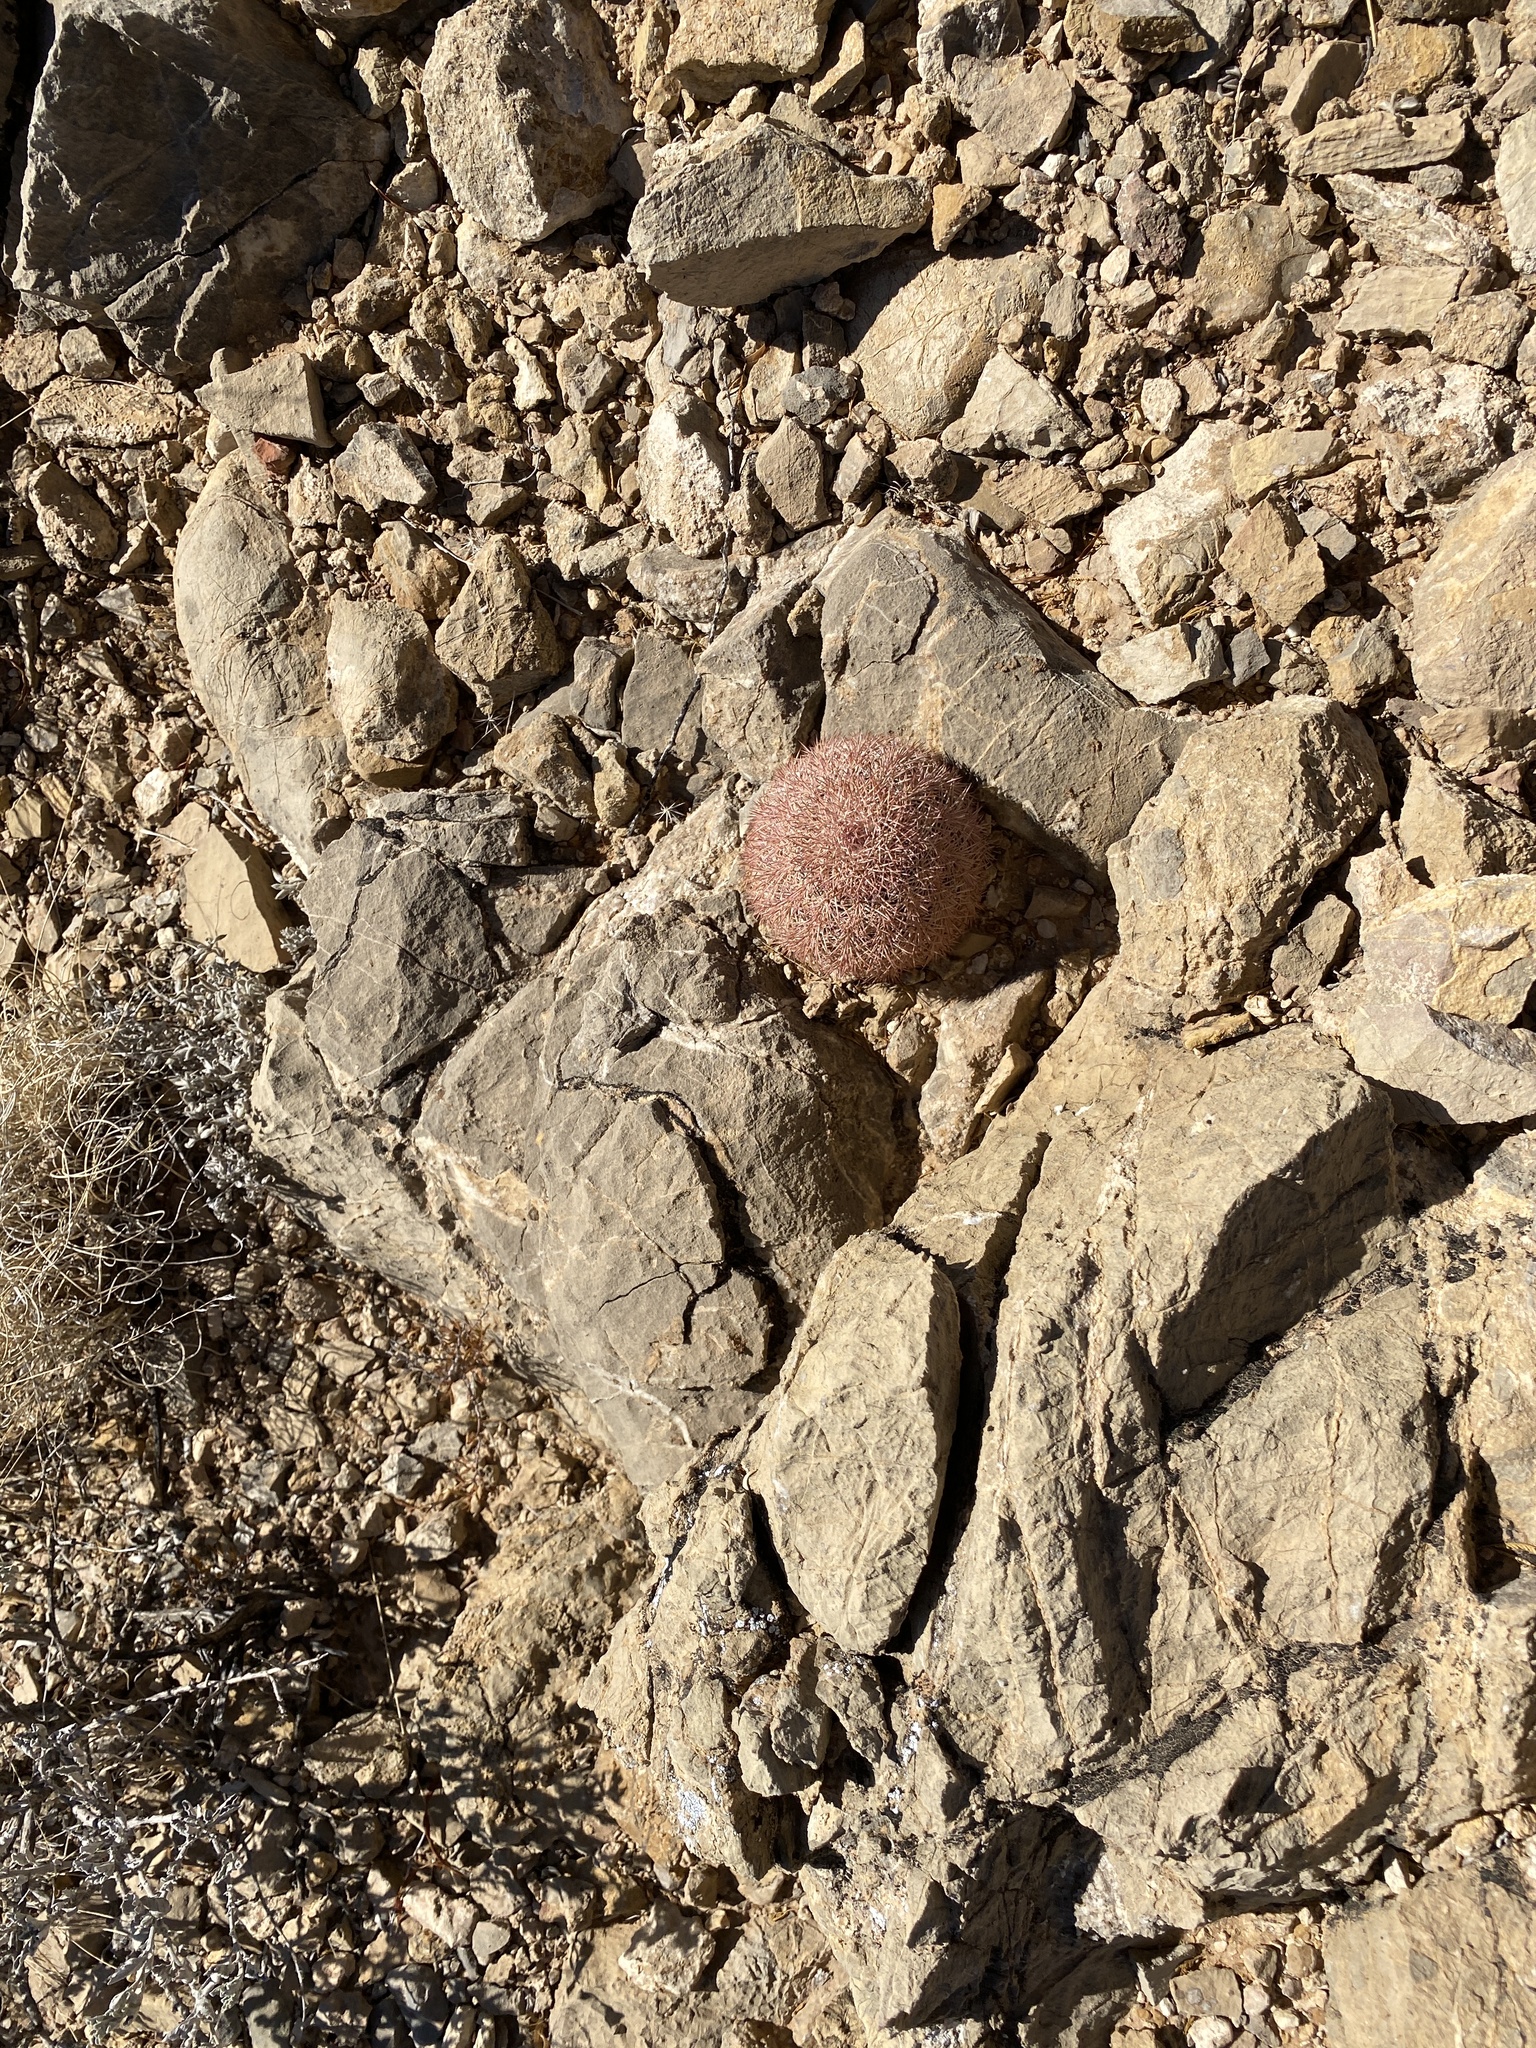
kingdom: Plantae
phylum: Tracheophyta
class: Magnoliopsida
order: Caryophyllales
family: Cactaceae
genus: Echinocereus
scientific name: Echinocereus dasyacanthus
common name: Spiny hedgehog cactus
